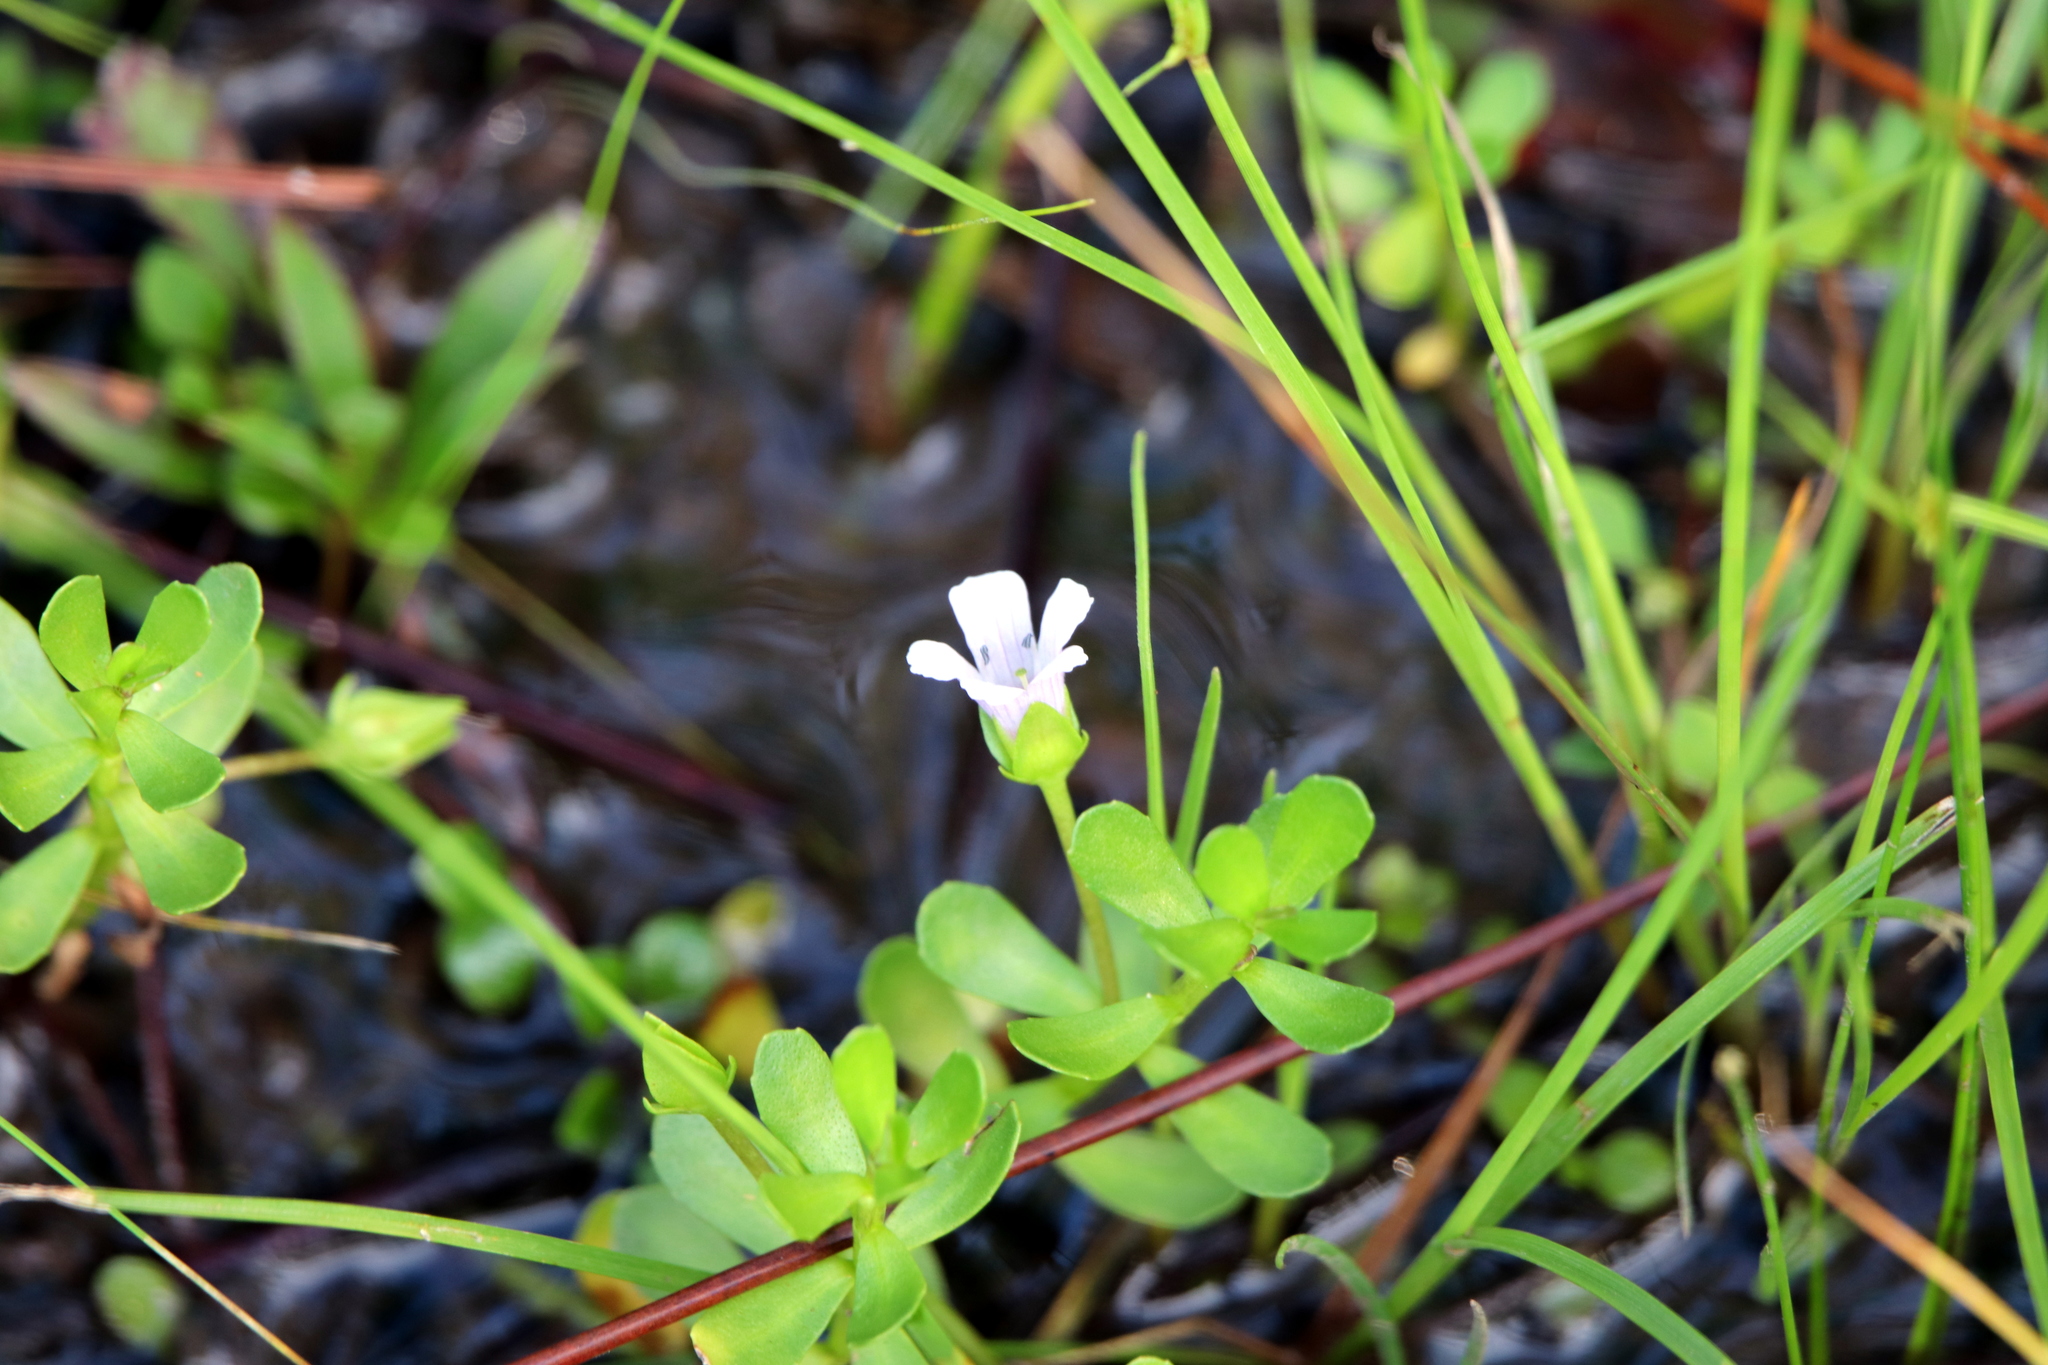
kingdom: Plantae
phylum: Tracheophyta
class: Magnoliopsida
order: Lamiales
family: Plantaginaceae
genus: Bacopa
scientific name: Bacopa monnieri
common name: Indian-pennywort
